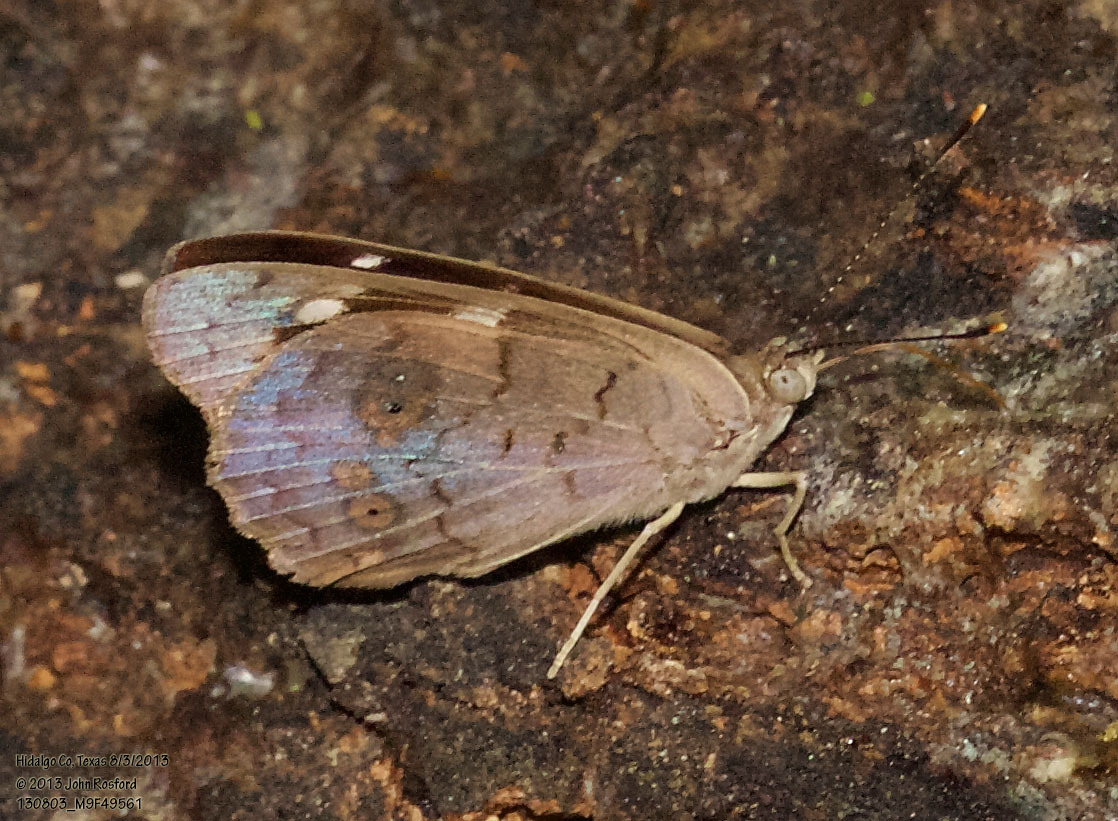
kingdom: Animalia
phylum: Arthropoda
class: Insecta
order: Lepidoptera
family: Nymphalidae
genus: Eunica
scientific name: Eunica monima
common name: Dingy purplewing
